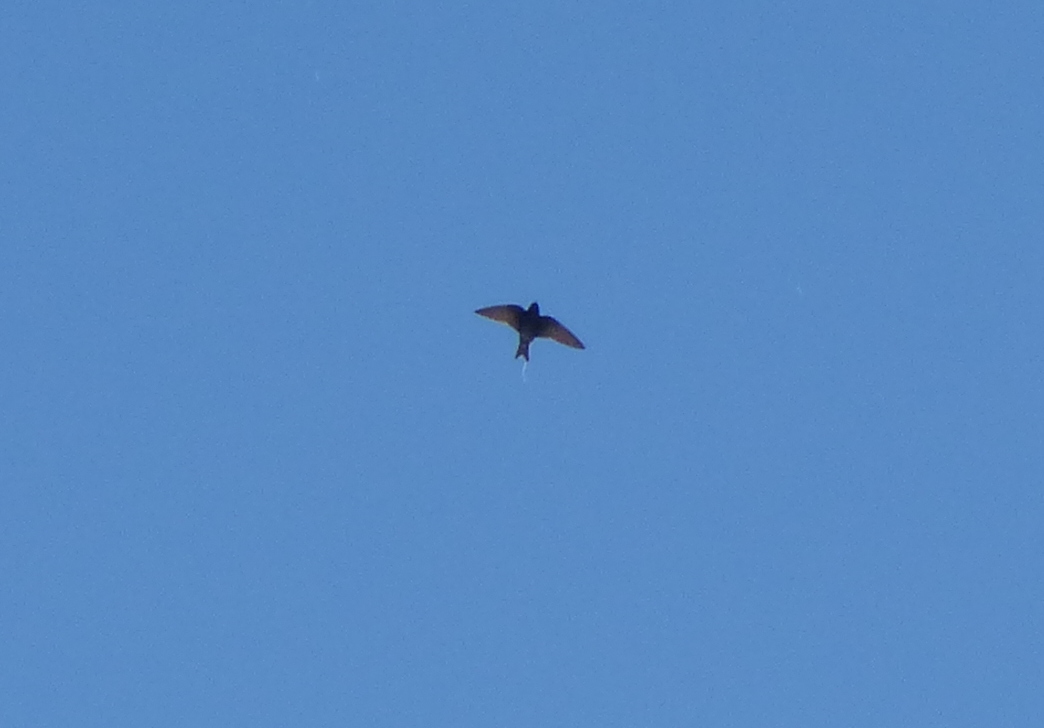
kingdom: Animalia
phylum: Chordata
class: Aves
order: Passeriformes
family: Hirundinidae
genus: Progne
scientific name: Progne elegans
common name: Southern martin
